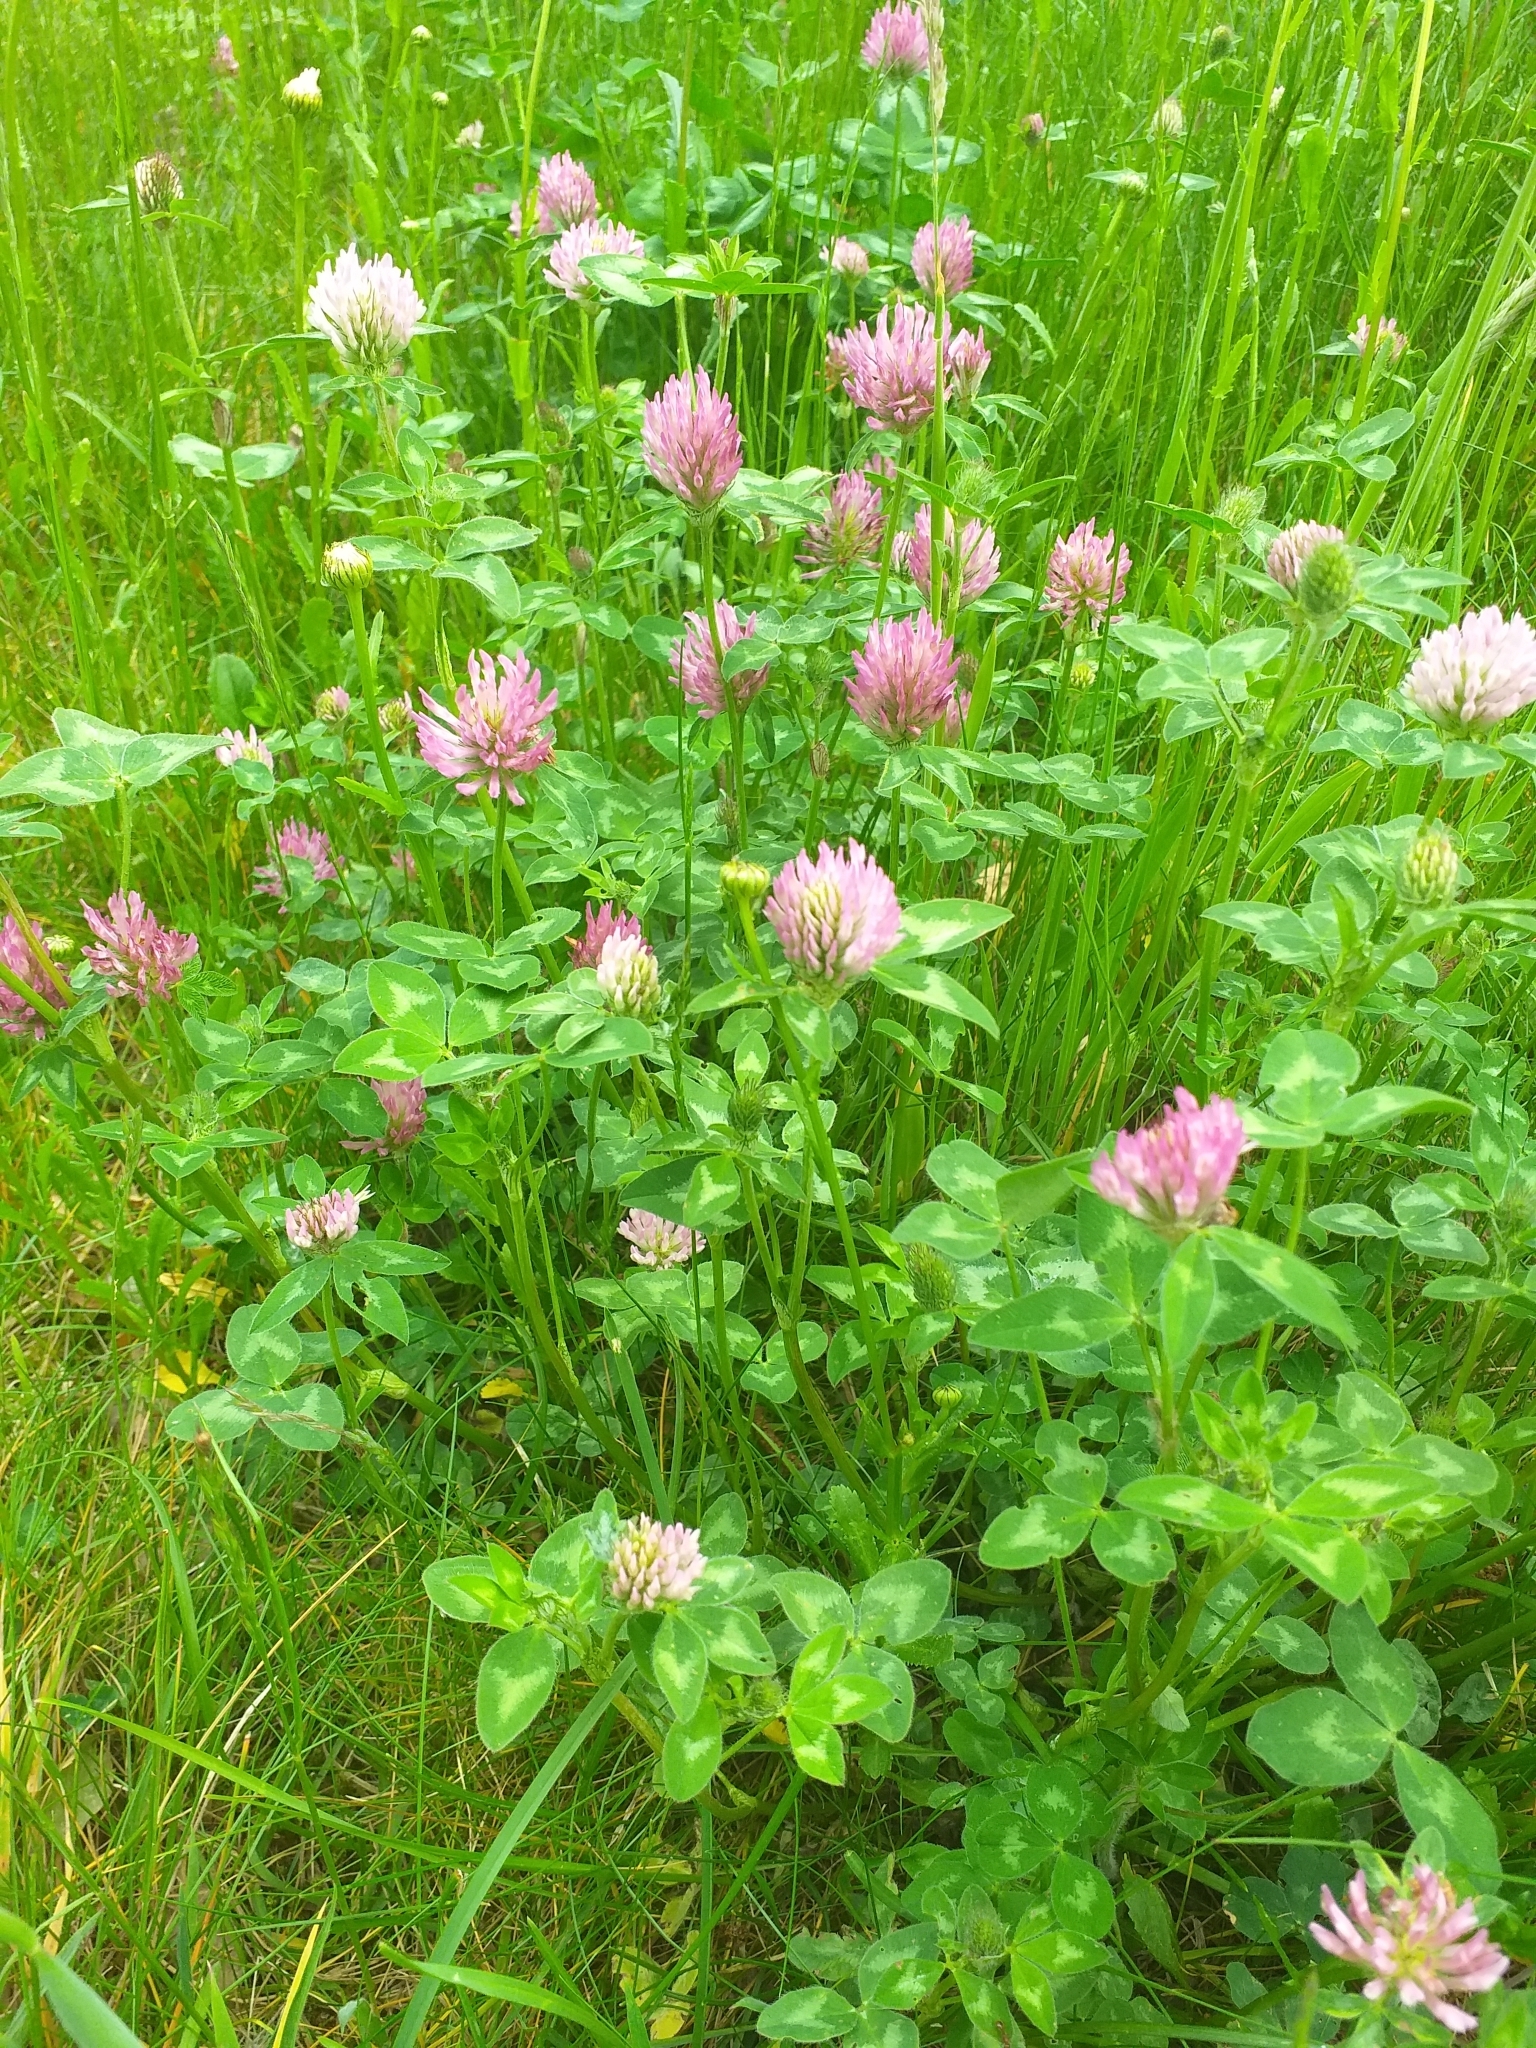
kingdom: Plantae
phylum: Tracheophyta
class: Magnoliopsida
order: Fabales
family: Fabaceae
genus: Trifolium
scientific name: Trifolium pratense
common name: Red clover
